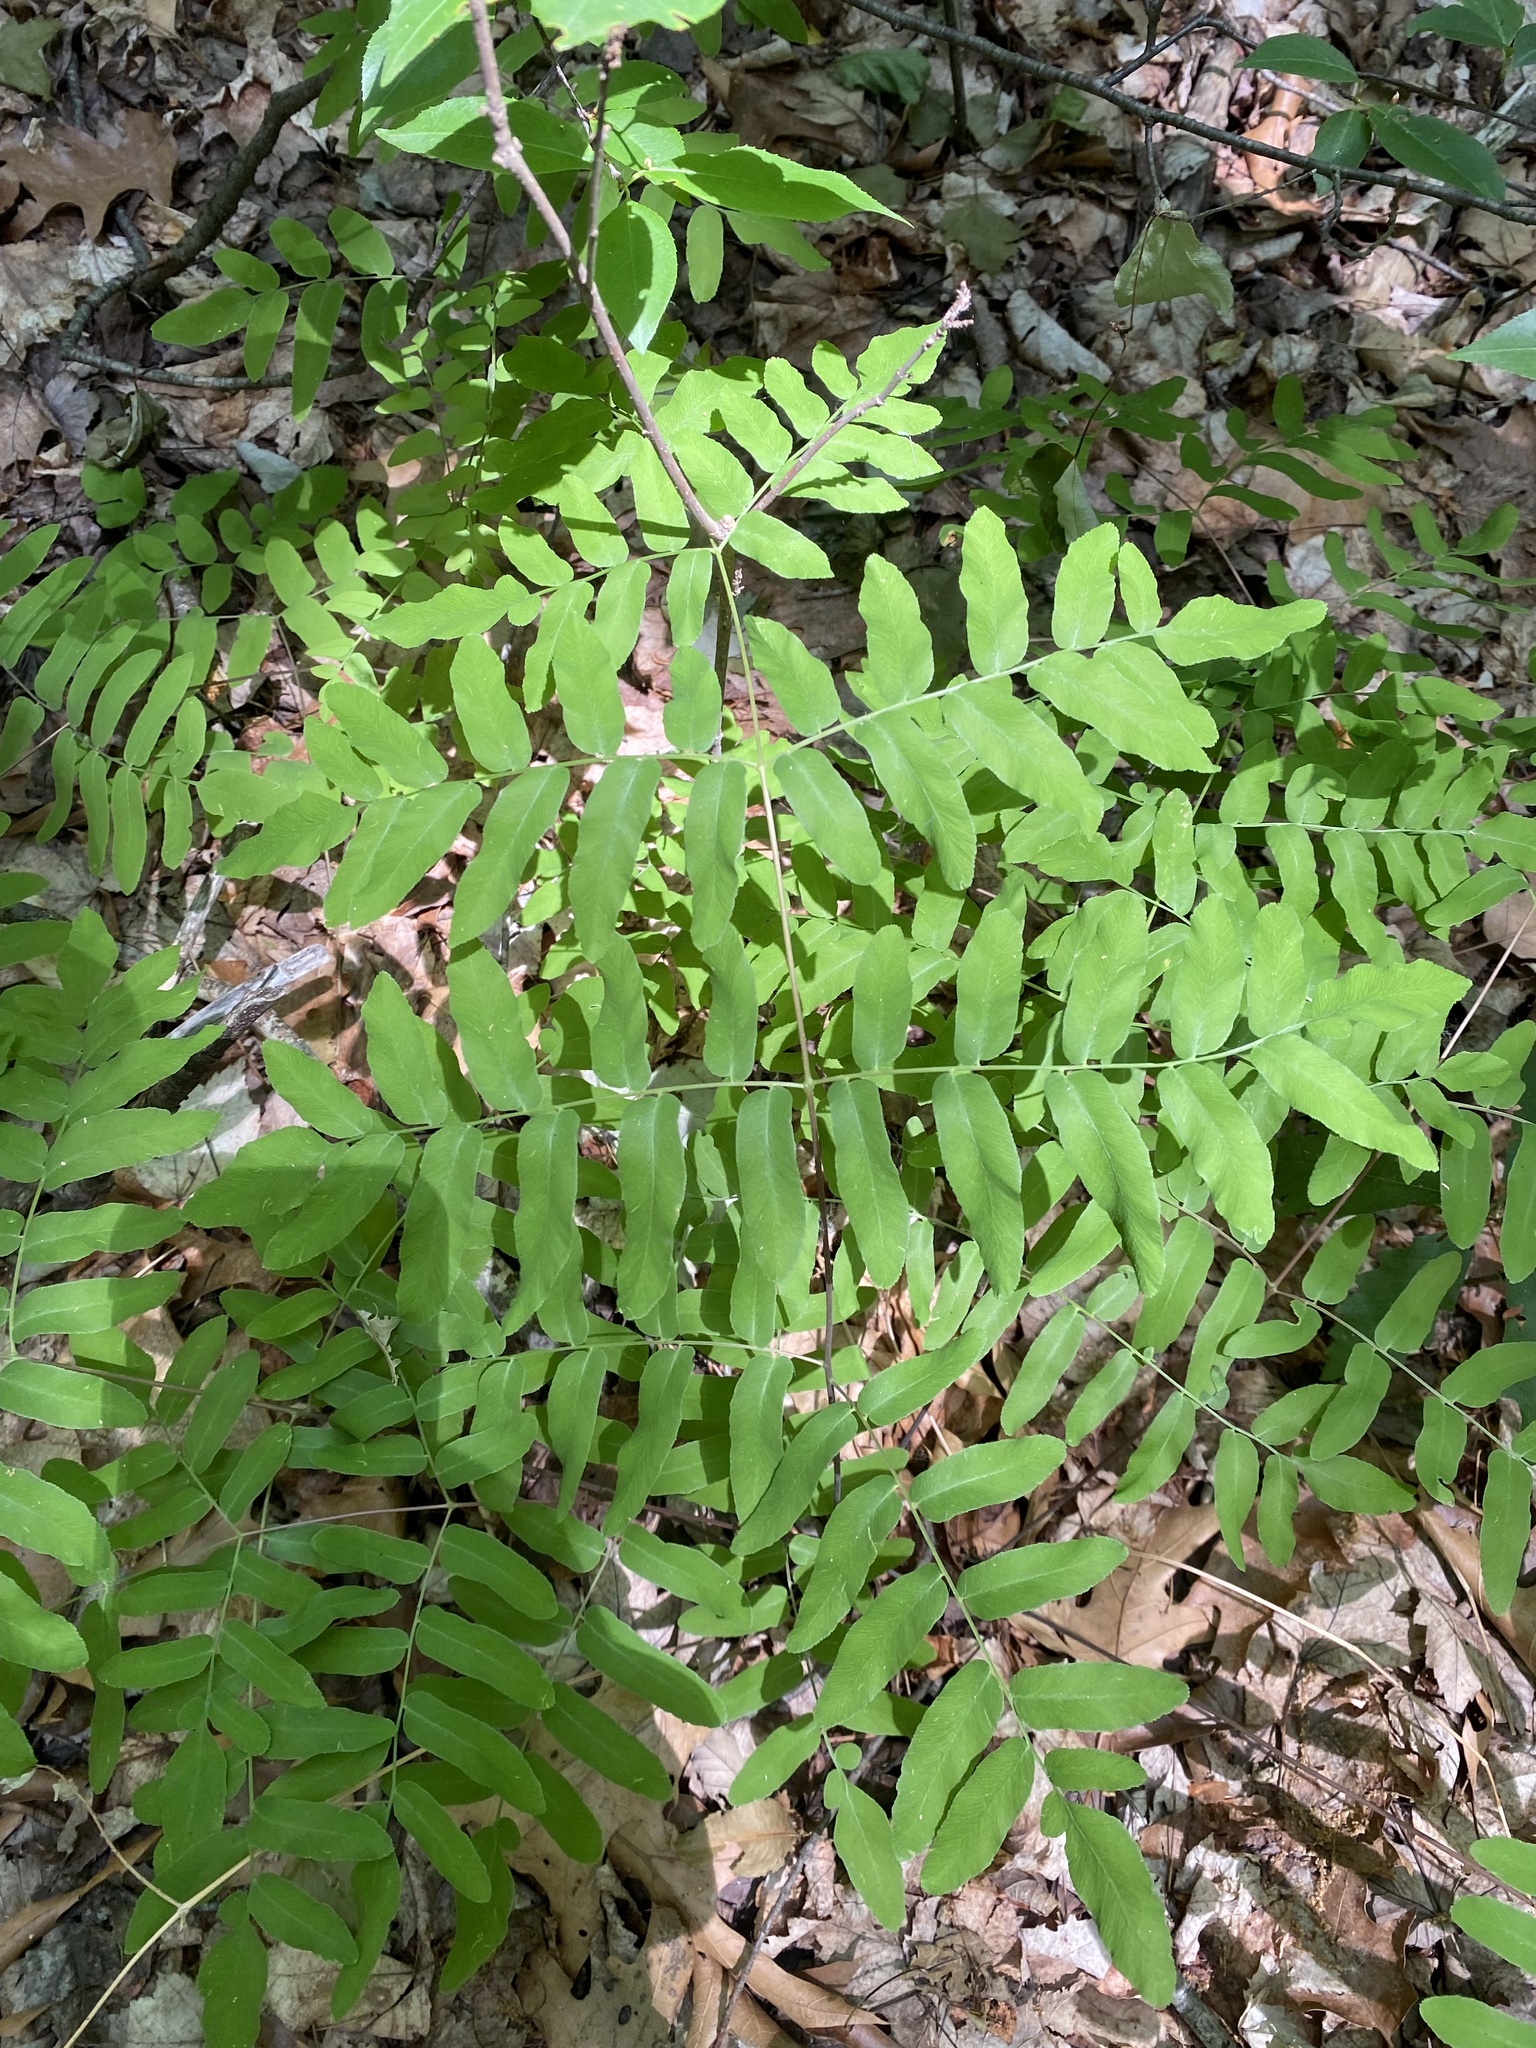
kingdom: Plantae
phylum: Tracheophyta
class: Polypodiopsida
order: Osmundales
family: Osmundaceae
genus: Osmunda
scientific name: Osmunda spectabilis
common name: American royal fern
